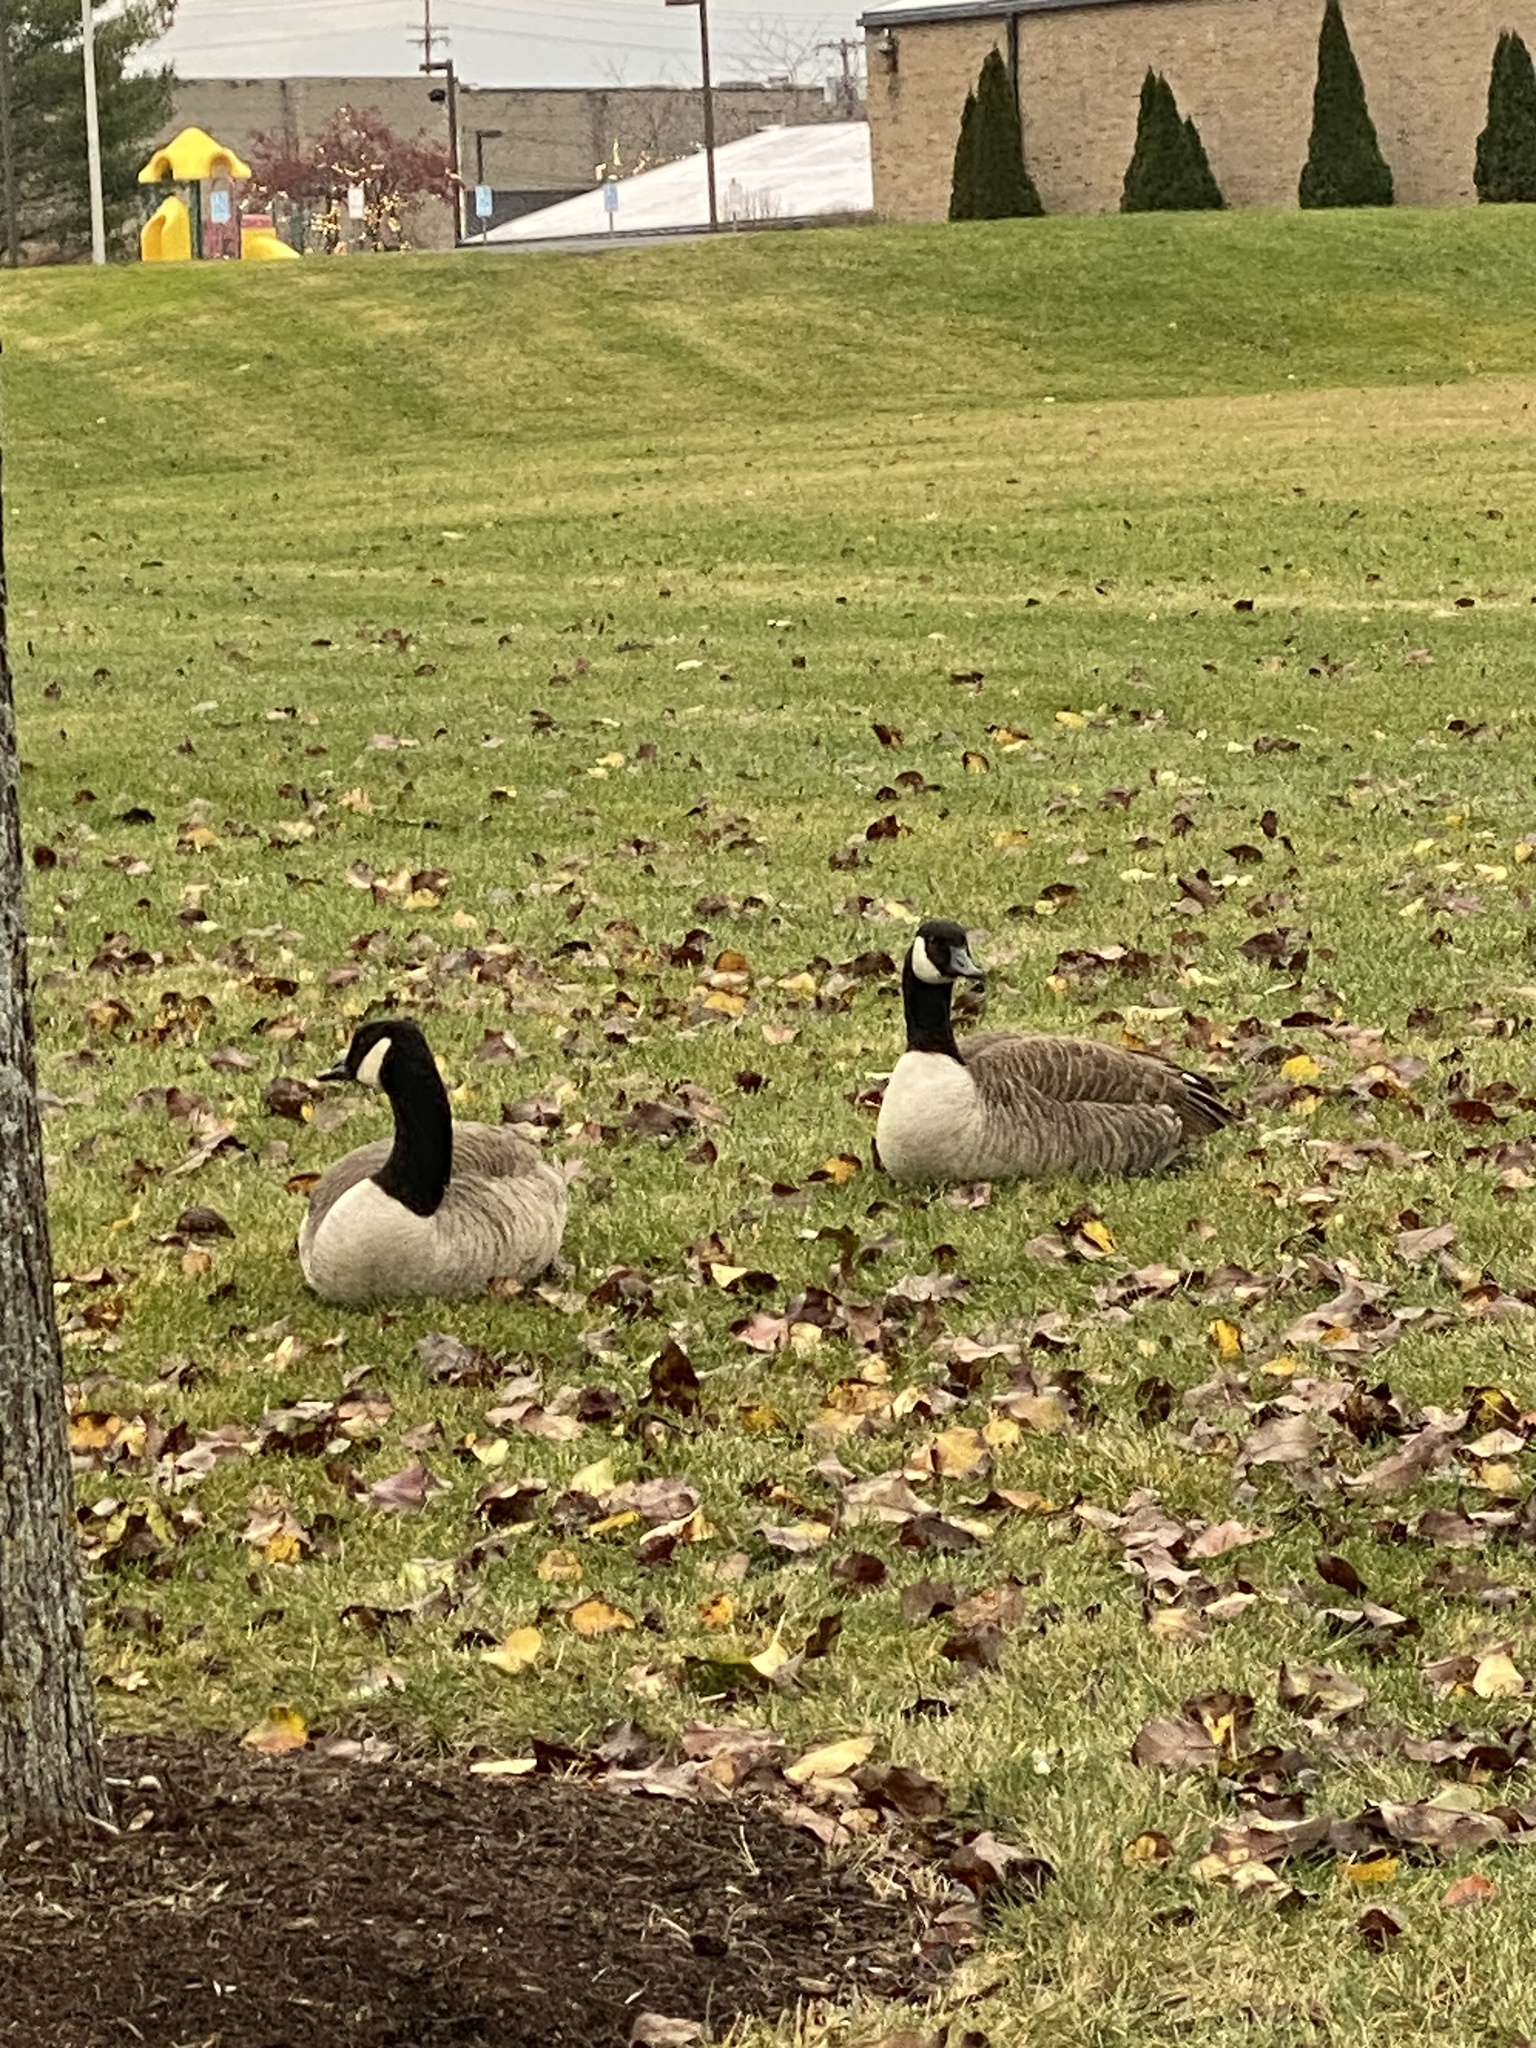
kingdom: Animalia
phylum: Chordata
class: Aves
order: Anseriformes
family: Anatidae
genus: Branta
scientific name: Branta canadensis
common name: Canada goose
